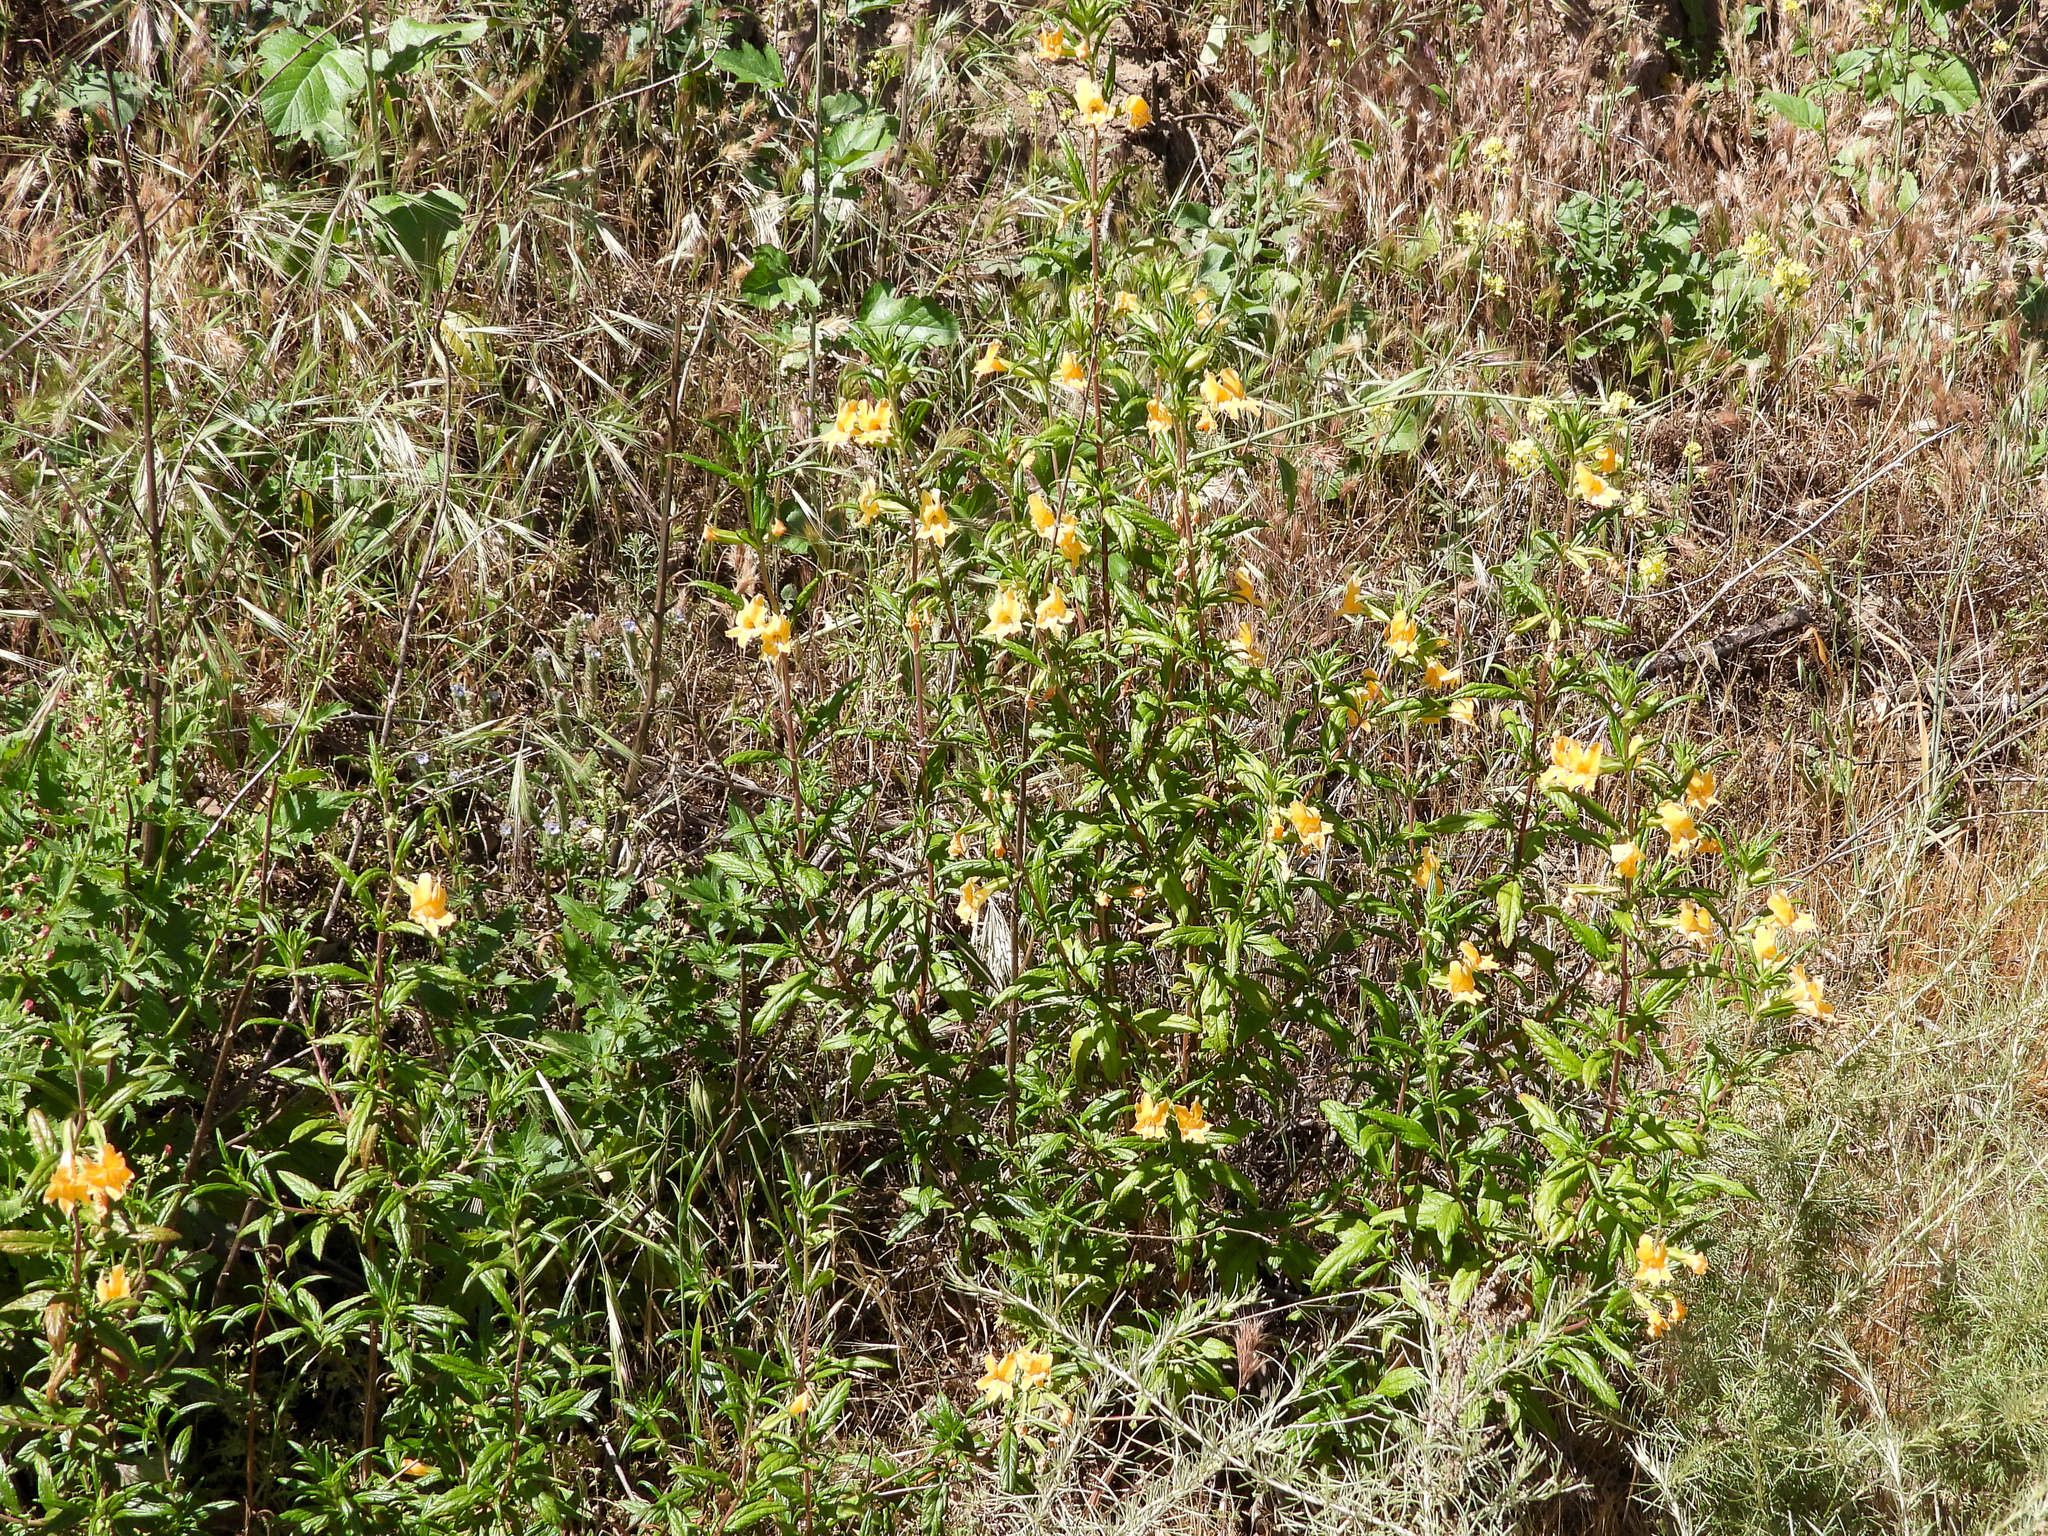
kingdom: Plantae
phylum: Tracheophyta
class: Magnoliopsida
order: Lamiales
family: Phrymaceae
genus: Diplacus
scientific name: Diplacus longiflorus
